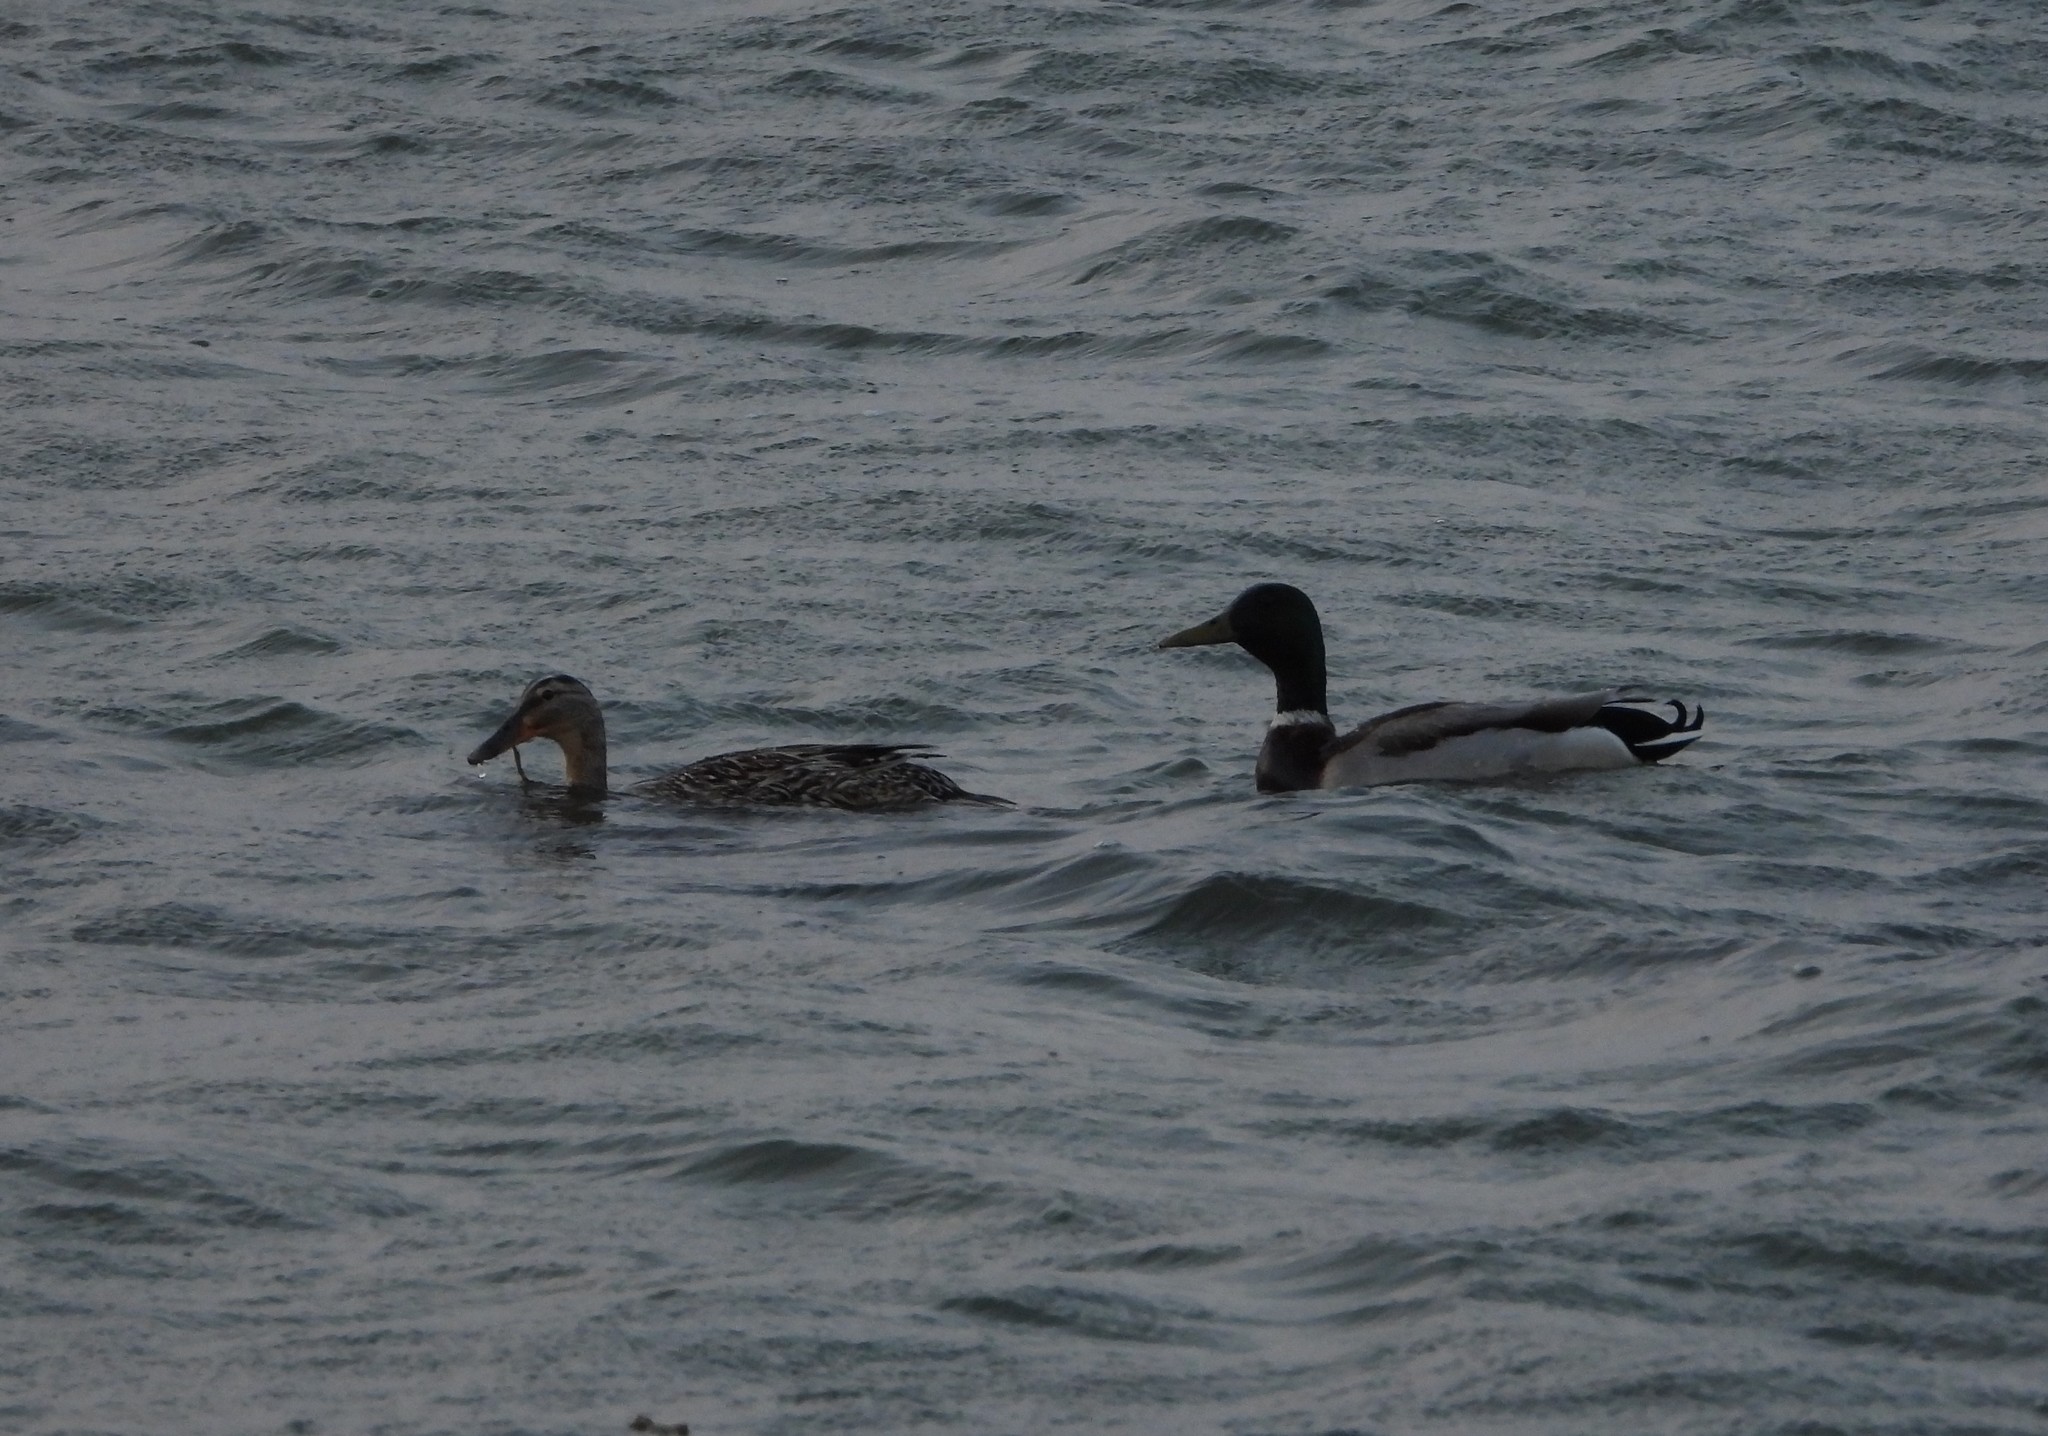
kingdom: Animalia
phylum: Chordata
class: Aves
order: Anseriformes
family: Anatidae
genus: Anas
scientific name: Anas platyrhynchos
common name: Mallard
